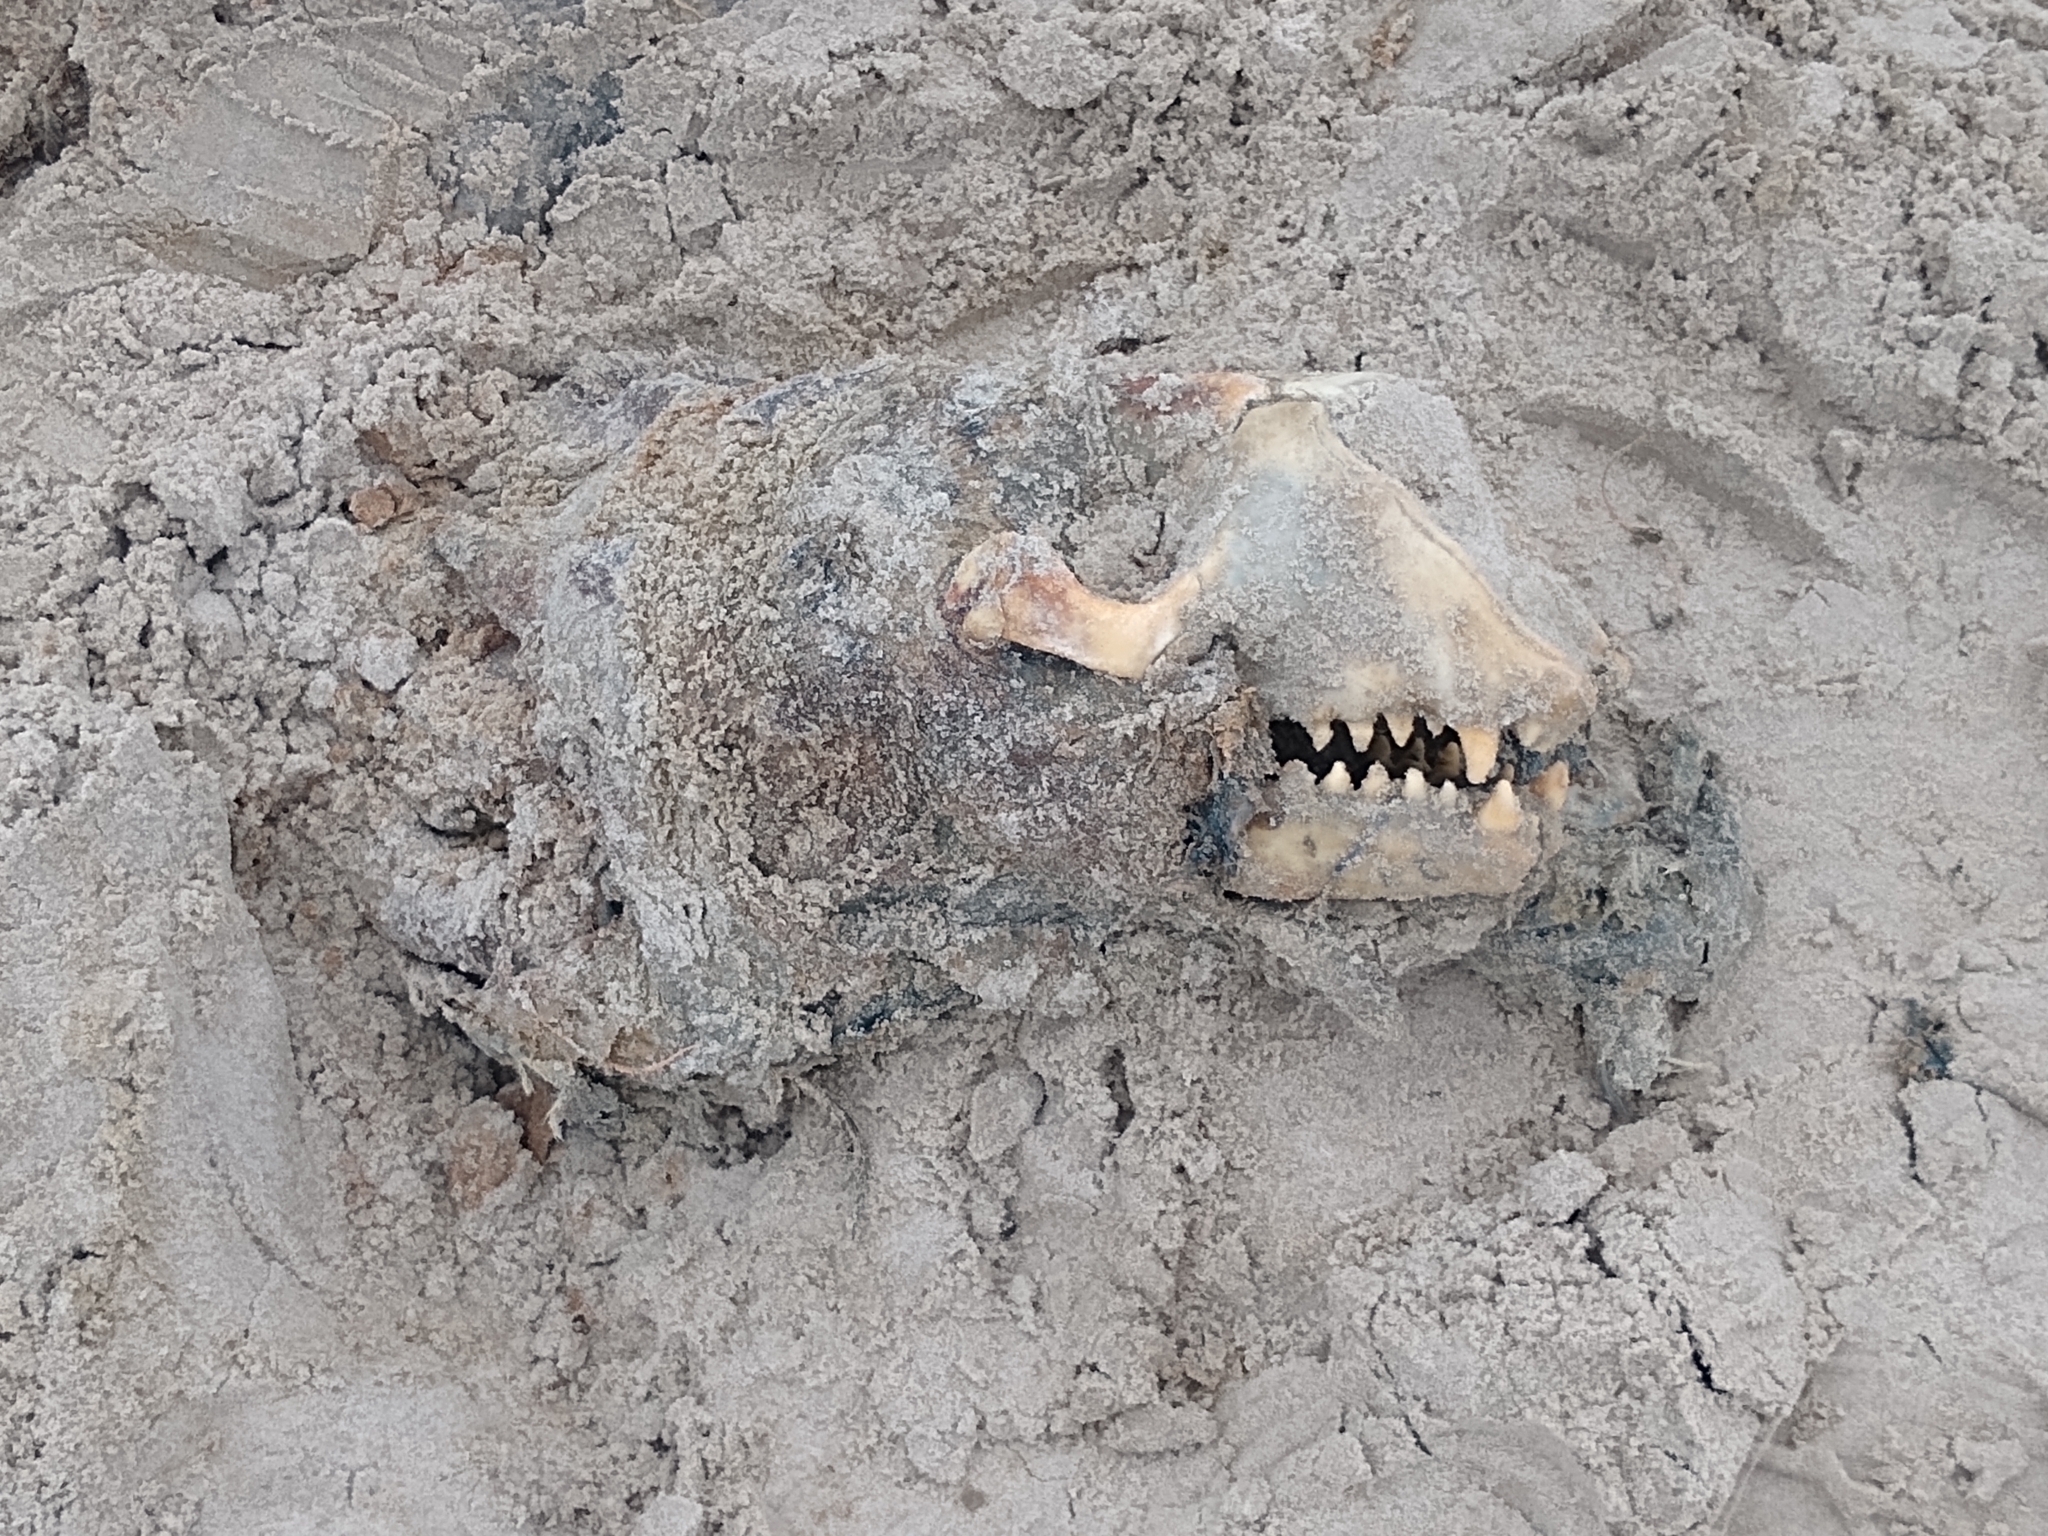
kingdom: Animalia
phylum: Chordata
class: Mammalia
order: Carnivora
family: Phocidae
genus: Halichoerus
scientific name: Halichoerus grypus
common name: Grey seal
